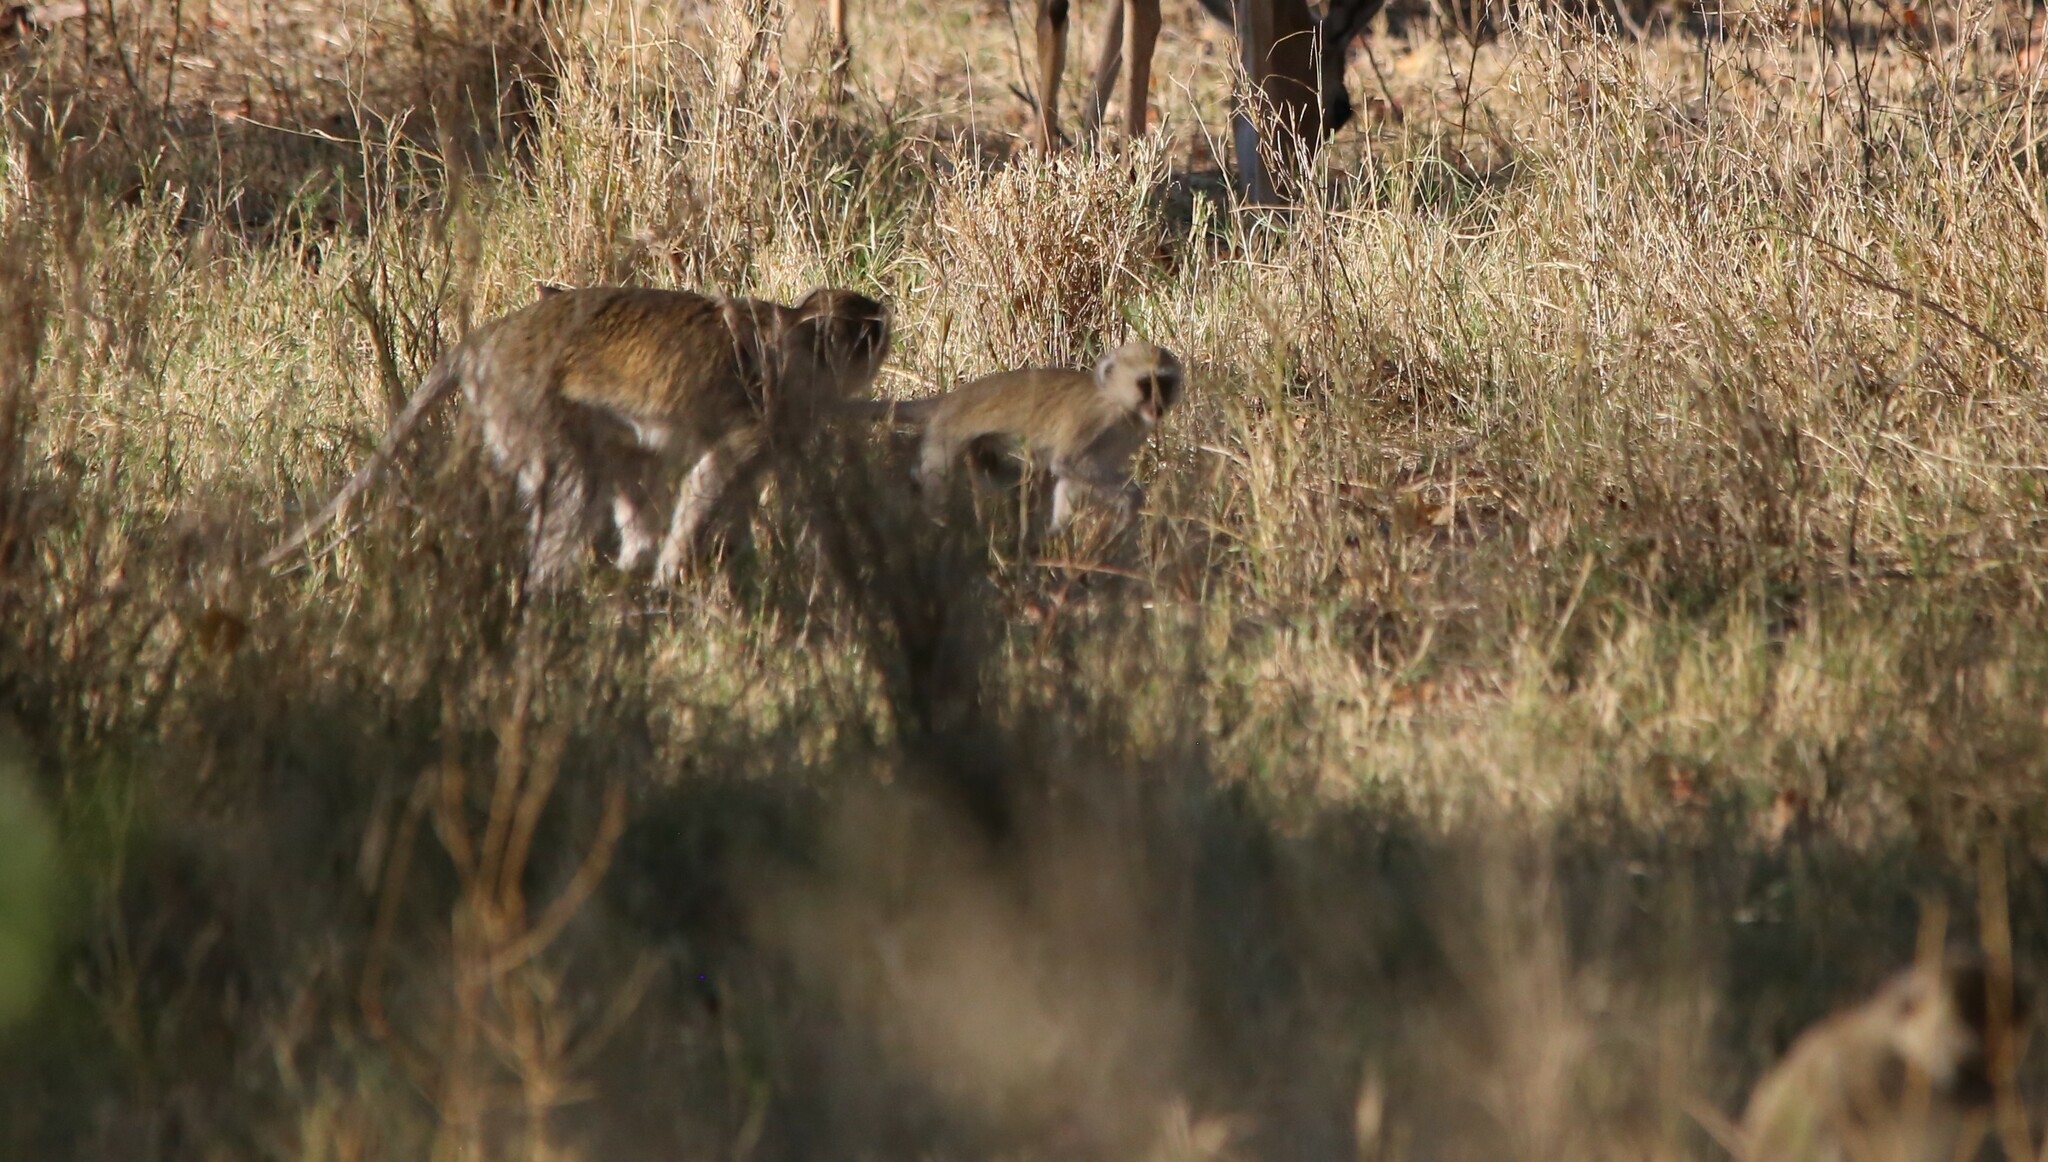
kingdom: Animalia
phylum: Chordata
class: Mammalia
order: Primates
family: Cercopithecidae
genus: Chlorocebus
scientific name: Chlorocebus cynosuros
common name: Malbrouck
